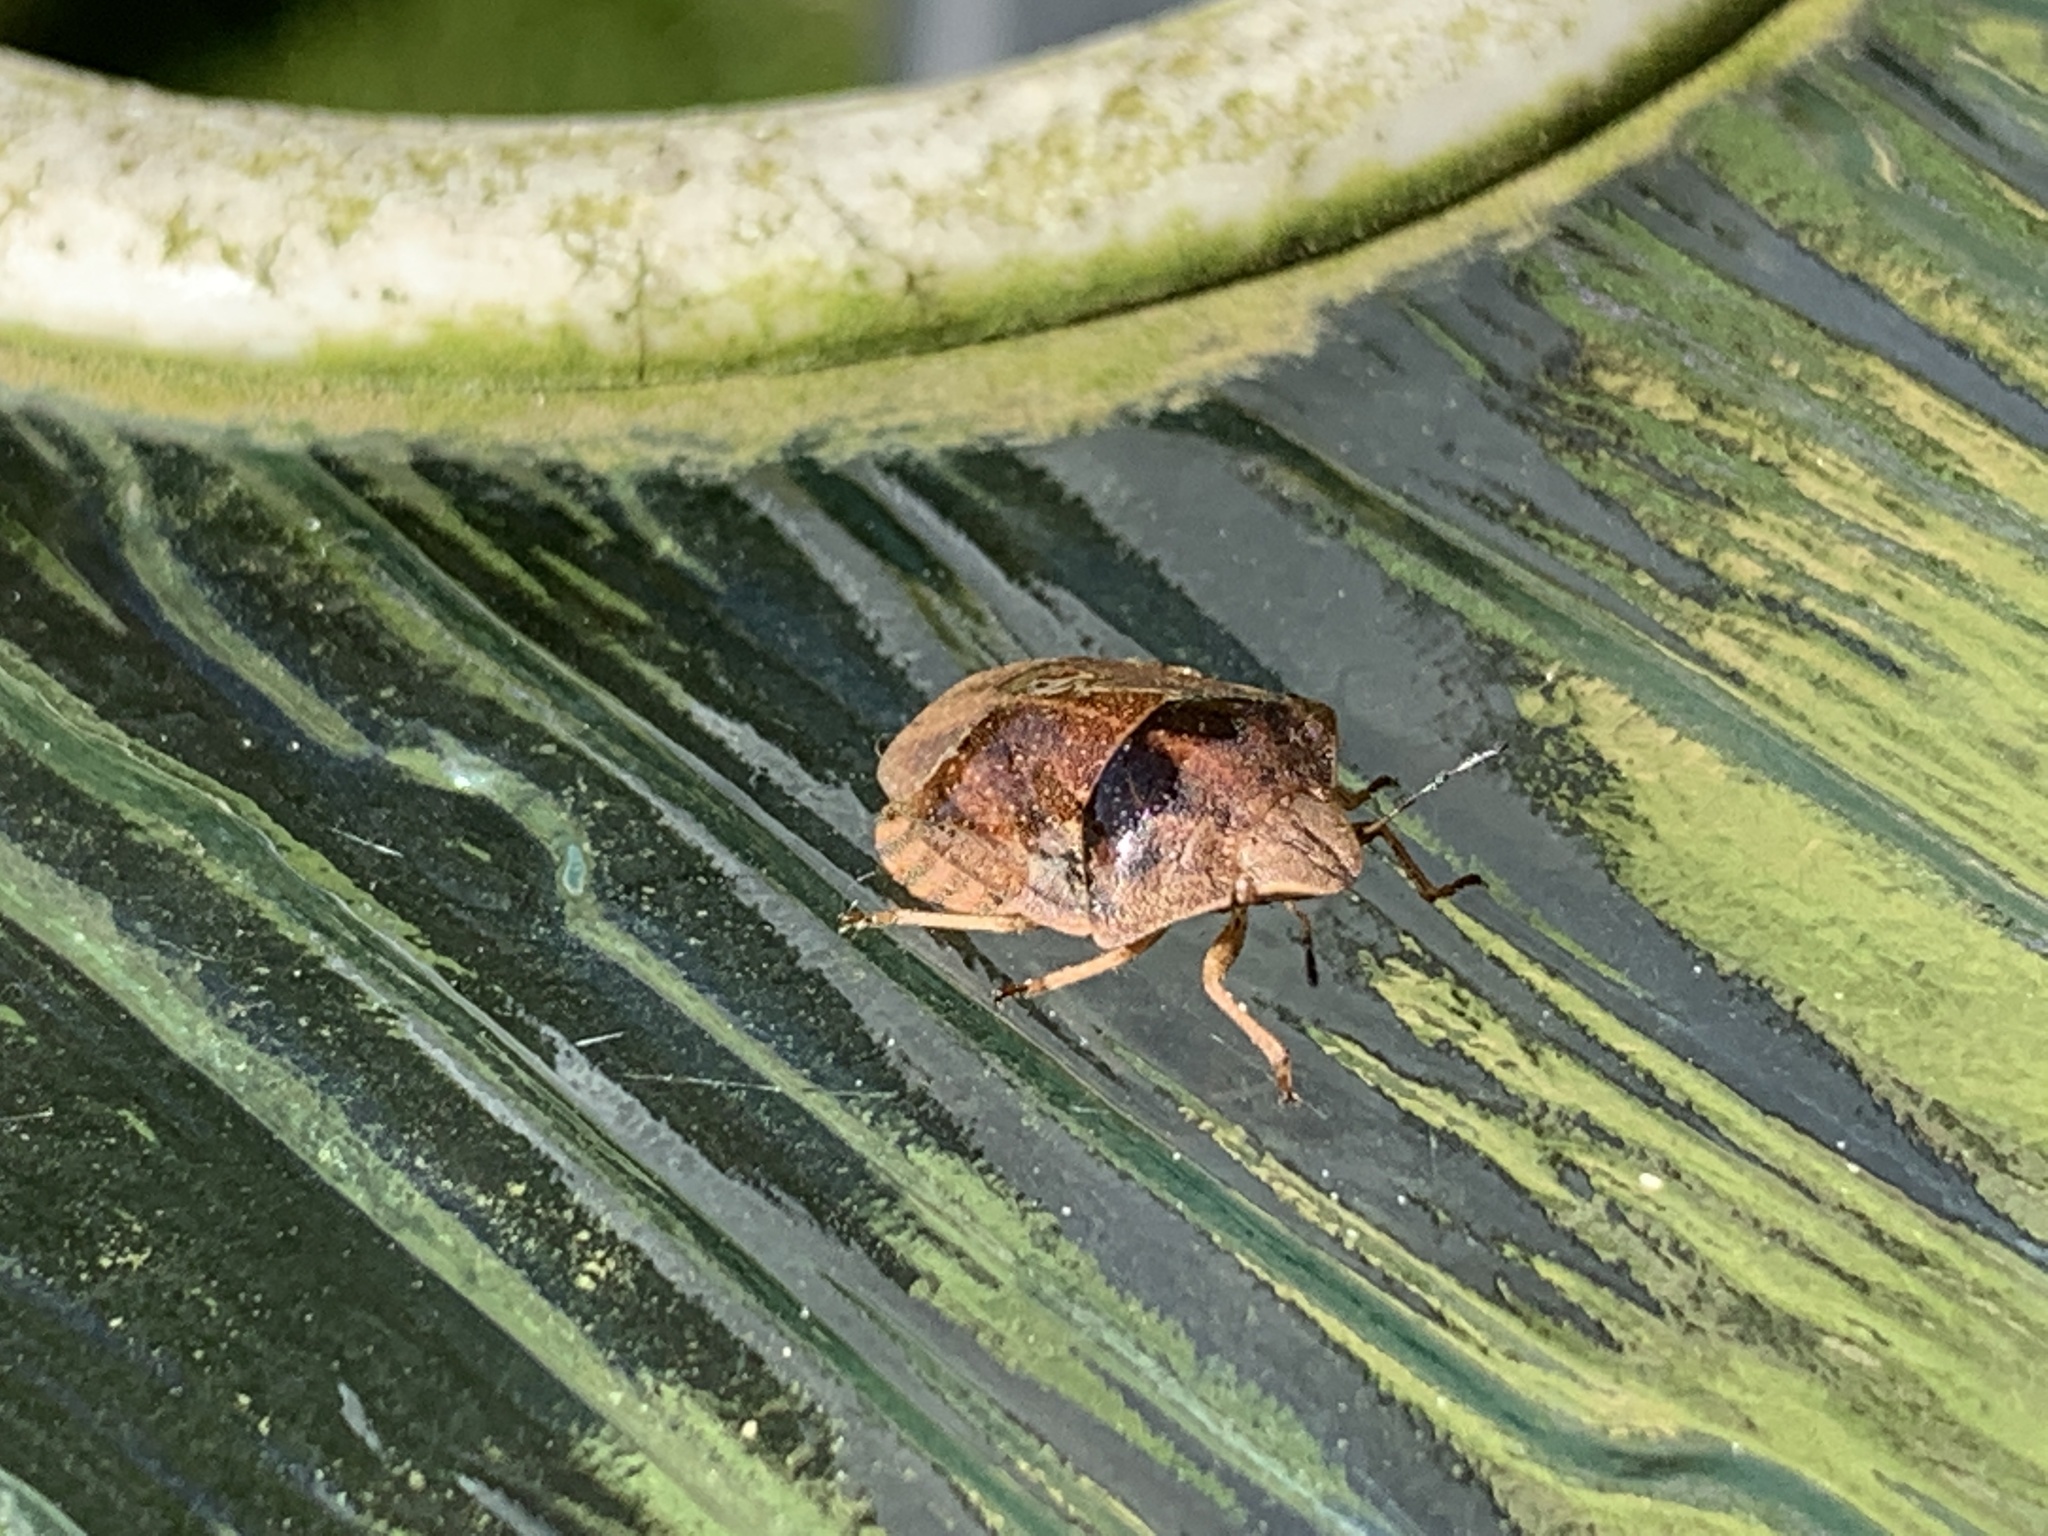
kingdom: Animalia
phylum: Arthropoda
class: Insecta
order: Hemiptera
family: Scutelleridae
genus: Eurygaster
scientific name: Eurygaster testudinaria
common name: Tortoise bug
